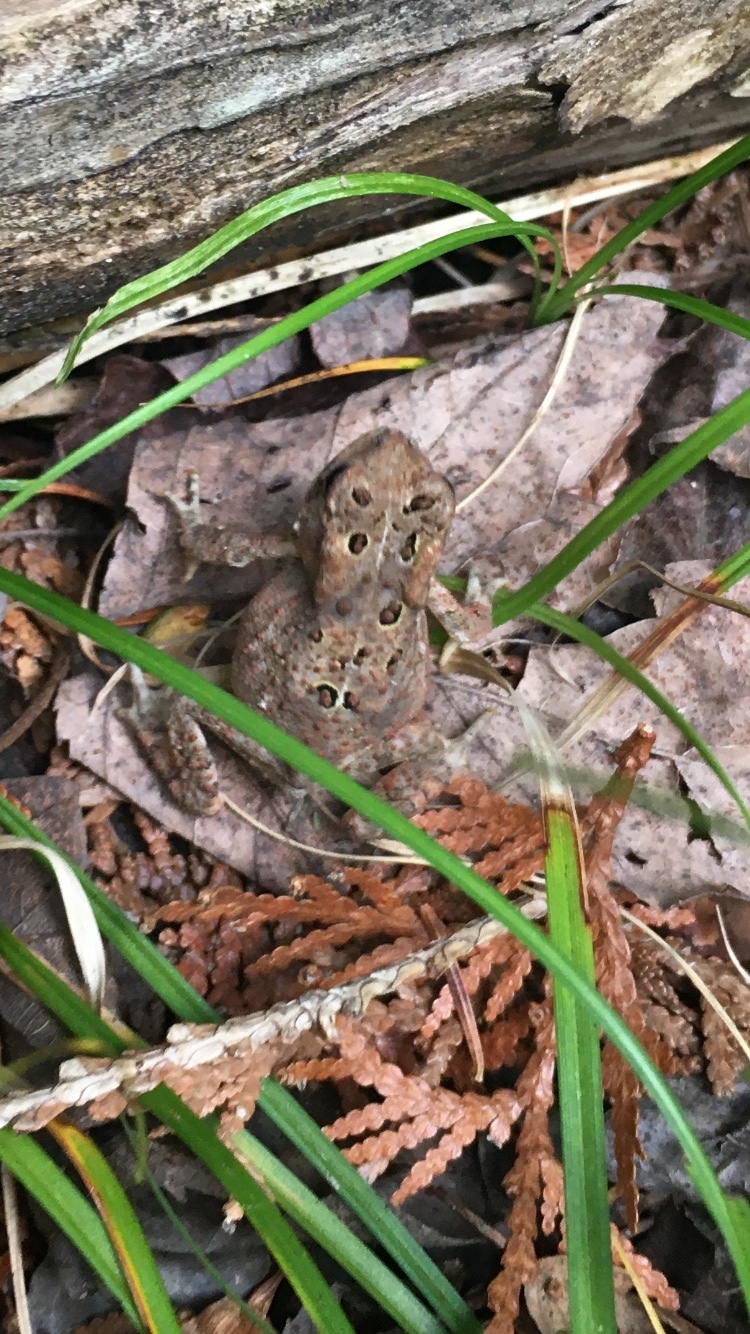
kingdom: Animalia
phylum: Chordata
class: Amphibia
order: Anura
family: Bufonidae
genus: Anaxyrus
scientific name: Anaxyrus americanus
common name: American toad
